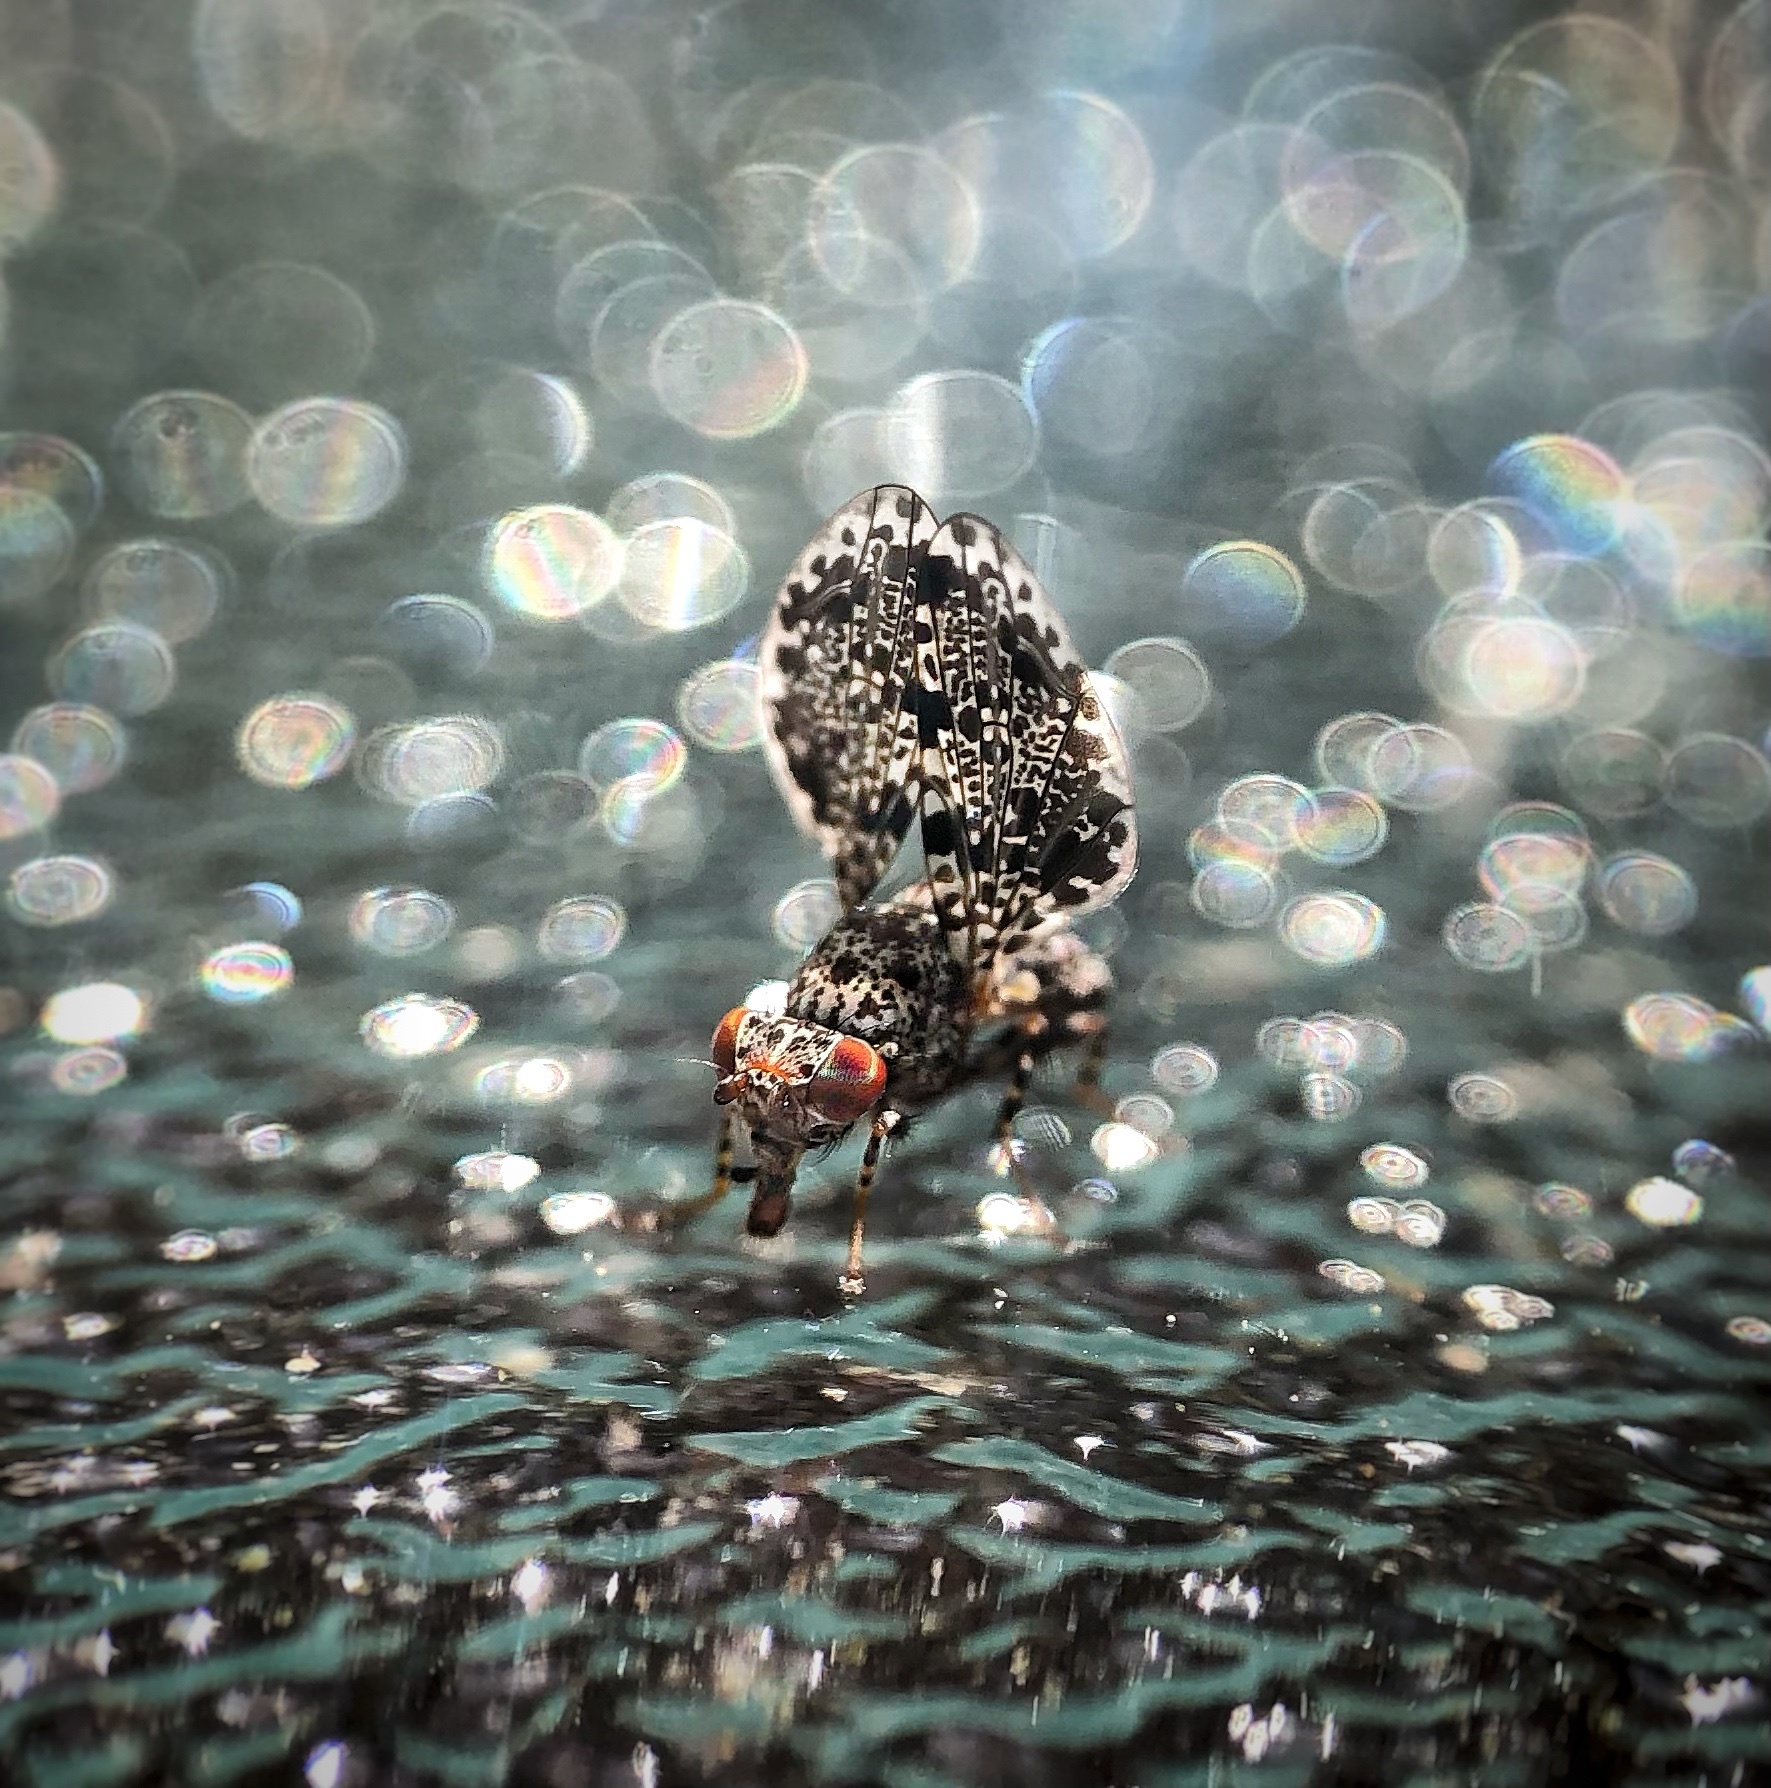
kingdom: Animalia
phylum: Arthropoda
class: Insecta
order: Diptera
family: Ulidiidae
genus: Callopistromyia
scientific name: Callopistromyia annulipes
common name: Peacock fly
